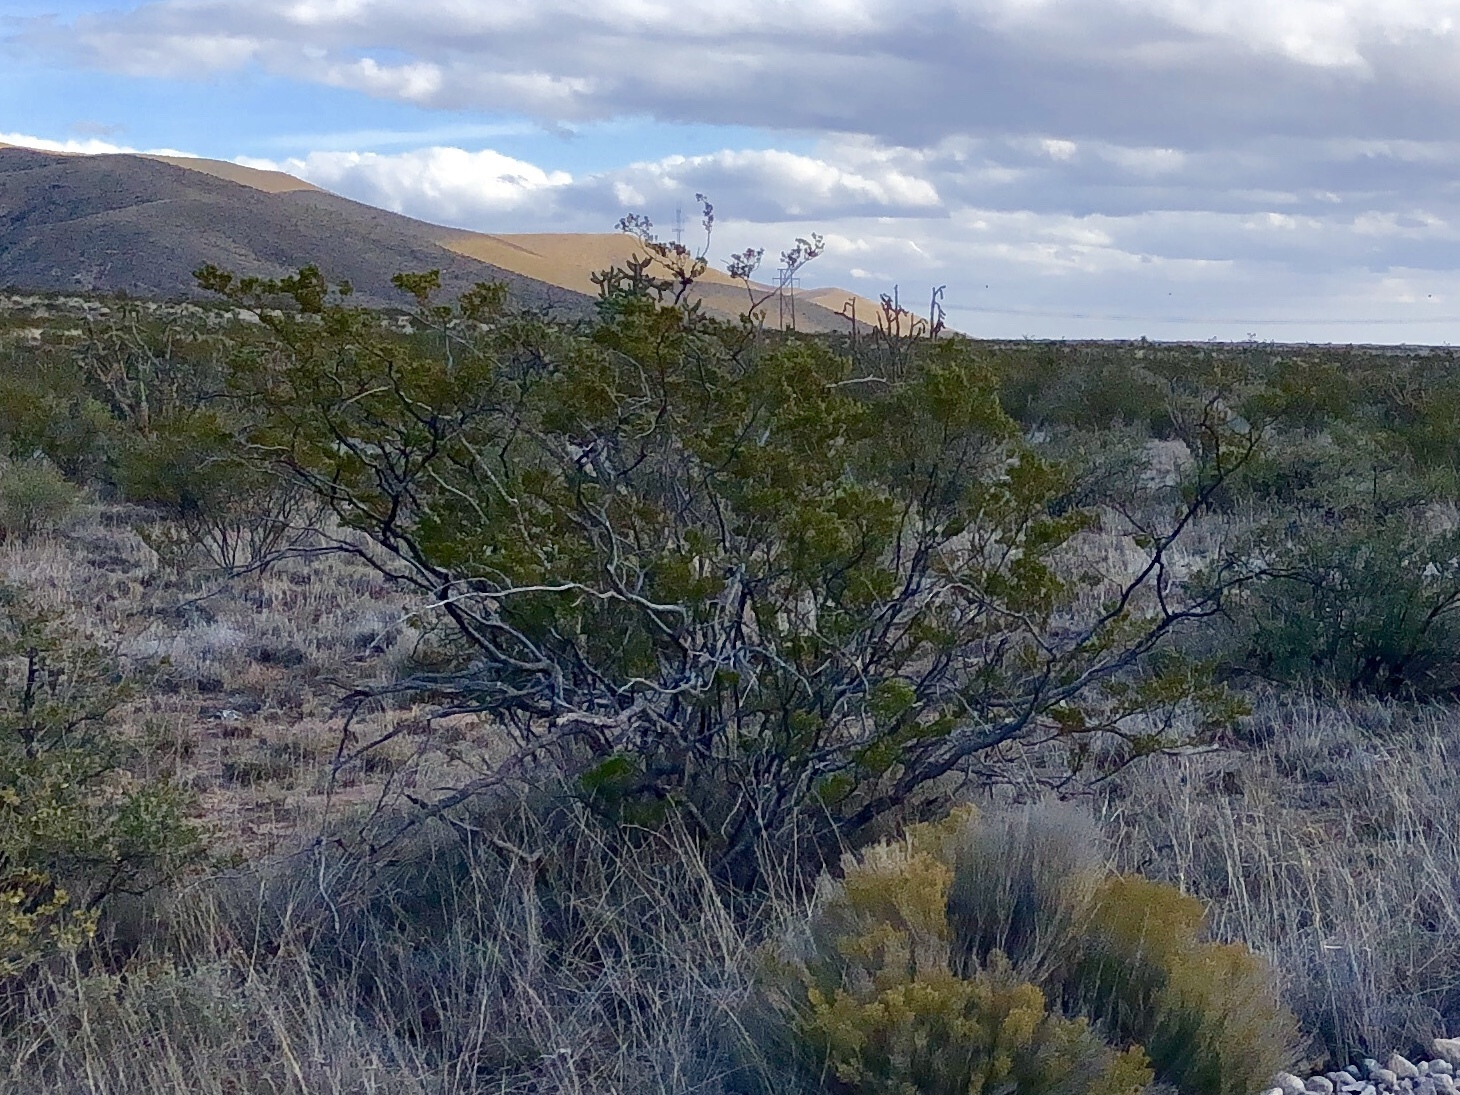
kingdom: Plantae
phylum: Tracheophyta
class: Magnoliopsida
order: Zygophyllales
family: Zygophyllaceae
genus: Larrea
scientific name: Larrea tridentata
